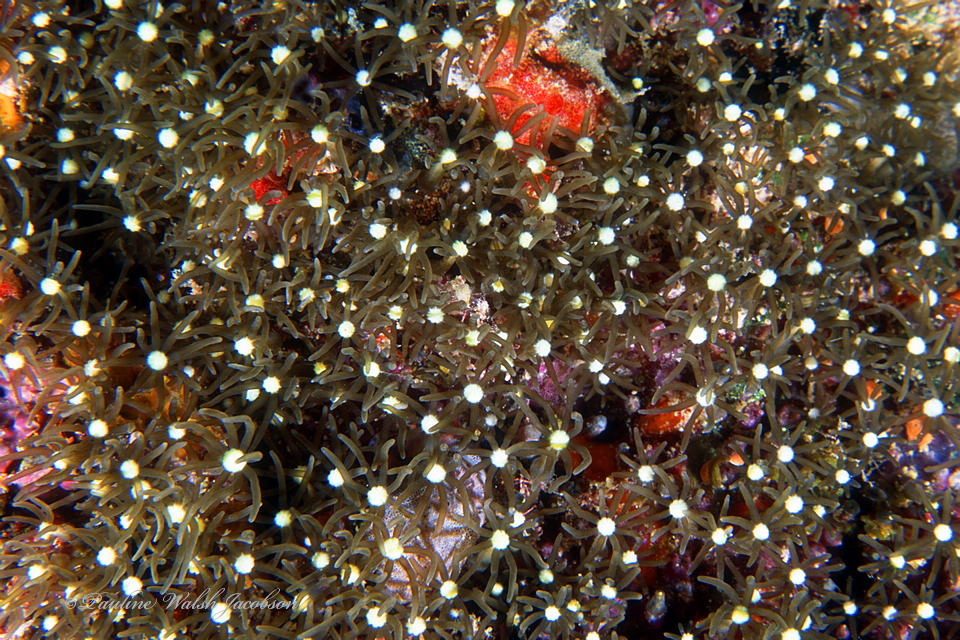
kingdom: Animalia
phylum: Cnidaria
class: Anthozoa
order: Scleralcyonacea
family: Briareidae
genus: Briareum
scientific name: Briareum violaceum
